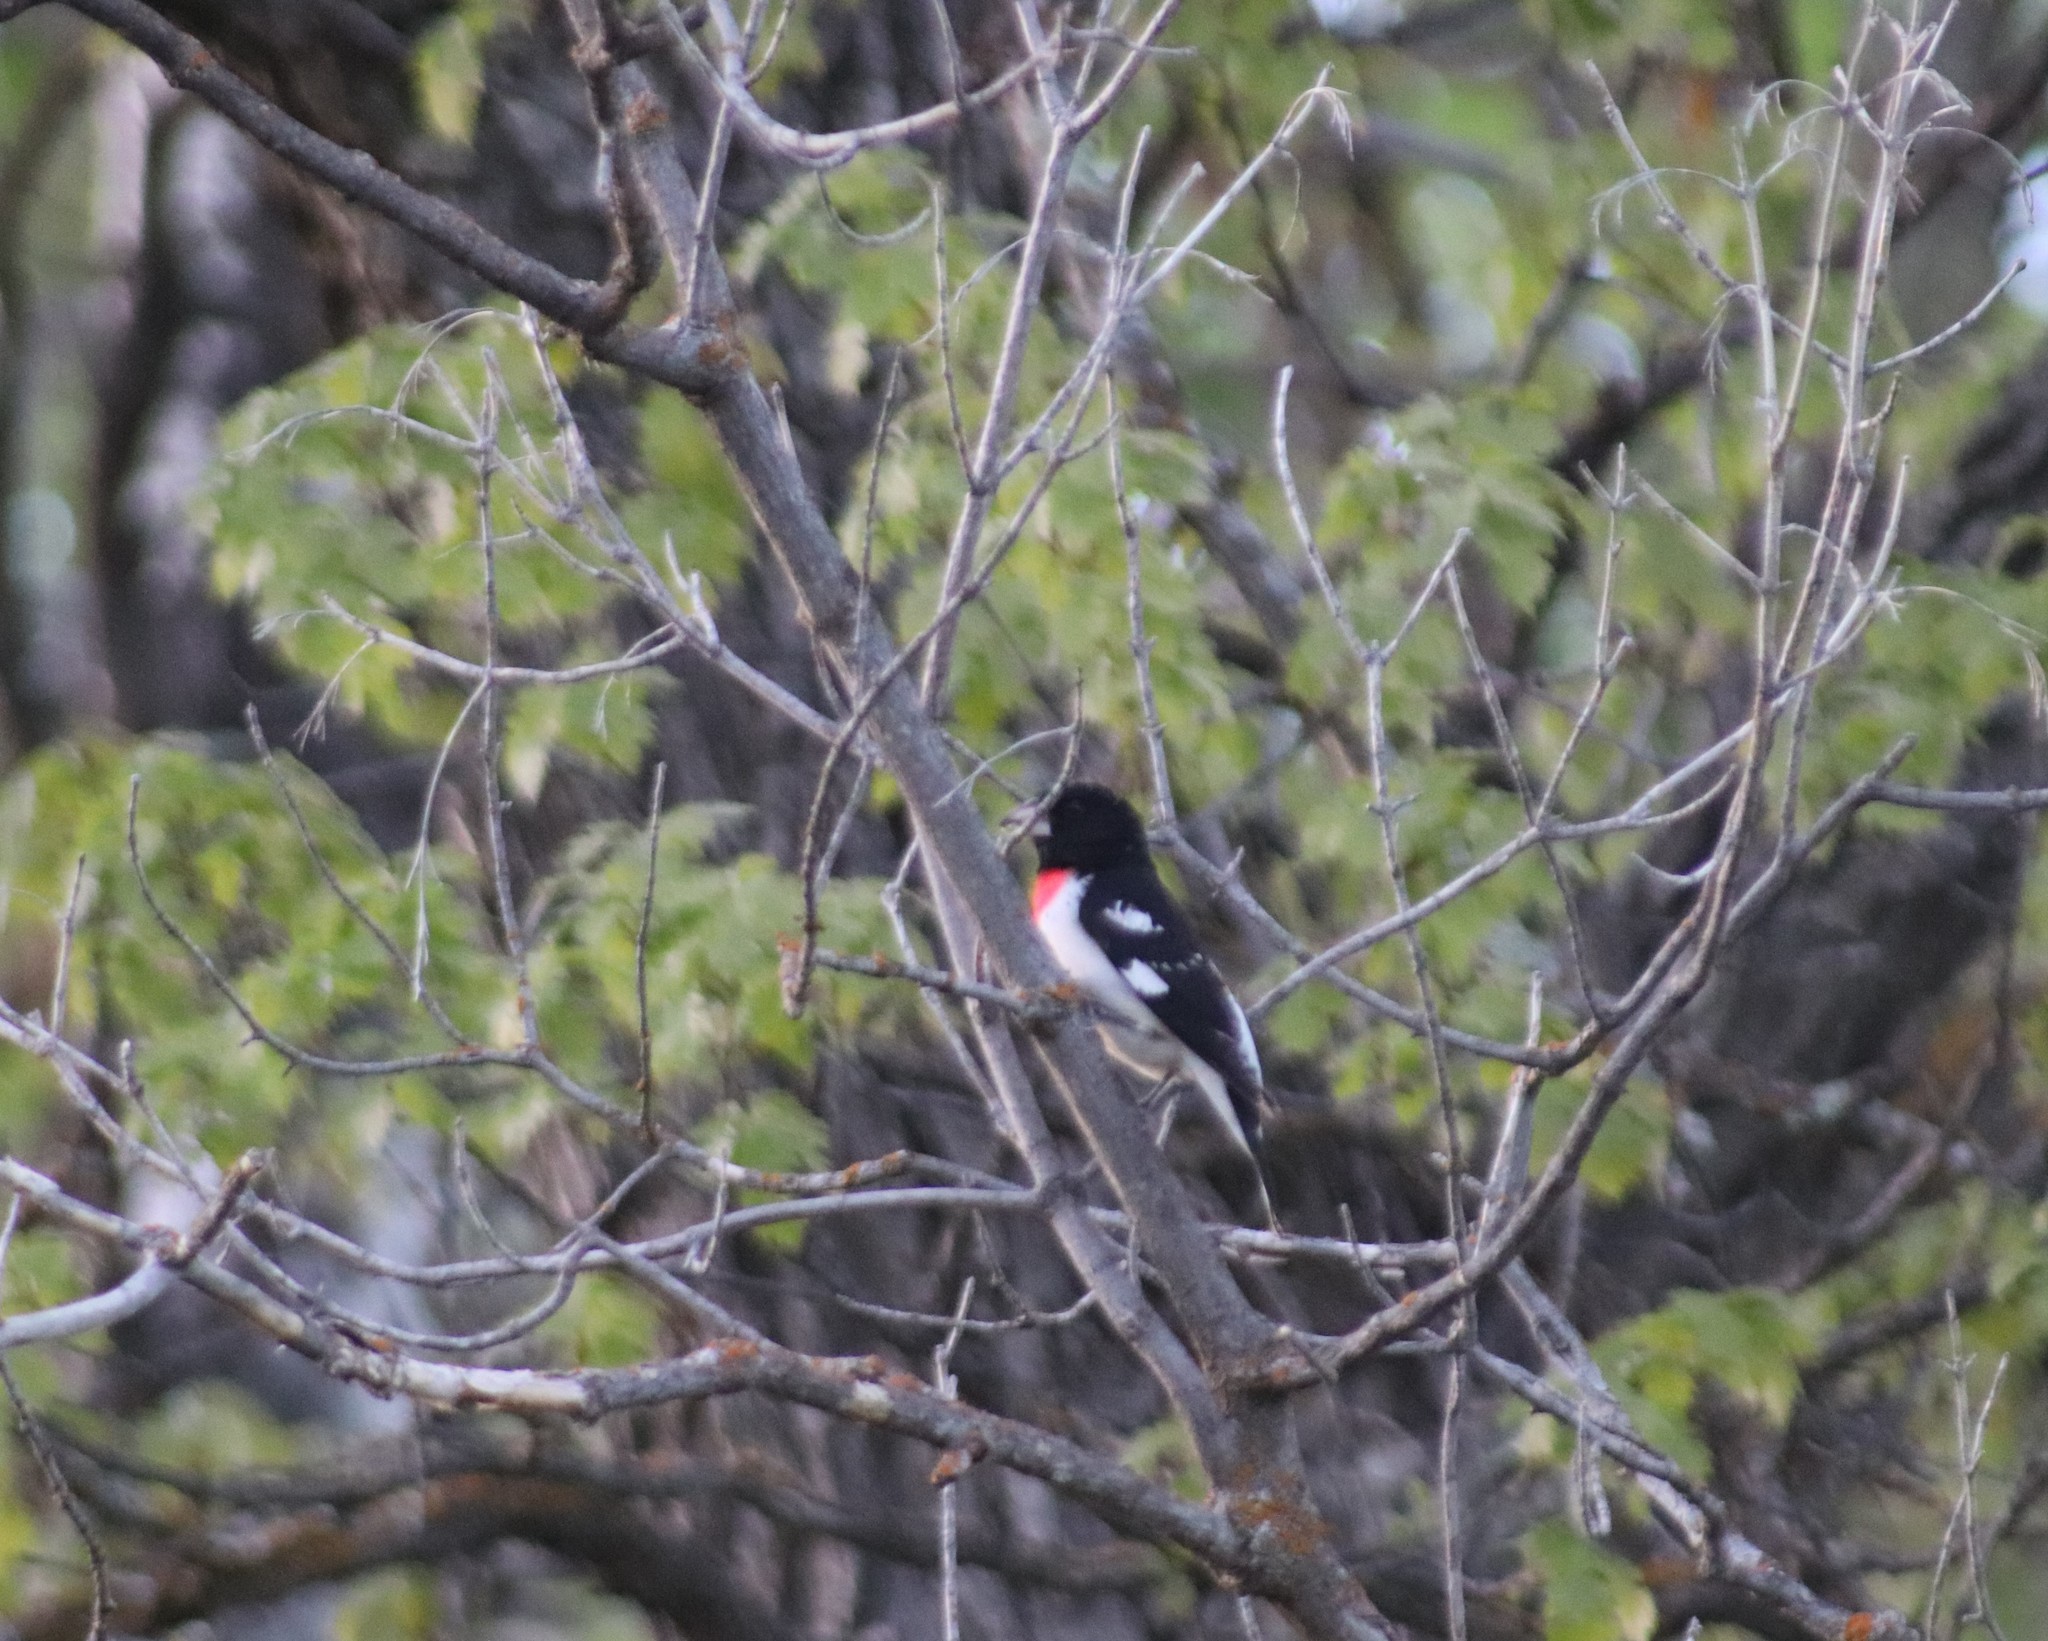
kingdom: Animalia
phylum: Chordata
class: Aves
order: Passeriformes
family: Cardinalidae
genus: Pheucticus
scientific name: Pheucticus ludovicianus
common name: Rose-breasted grosbeak
